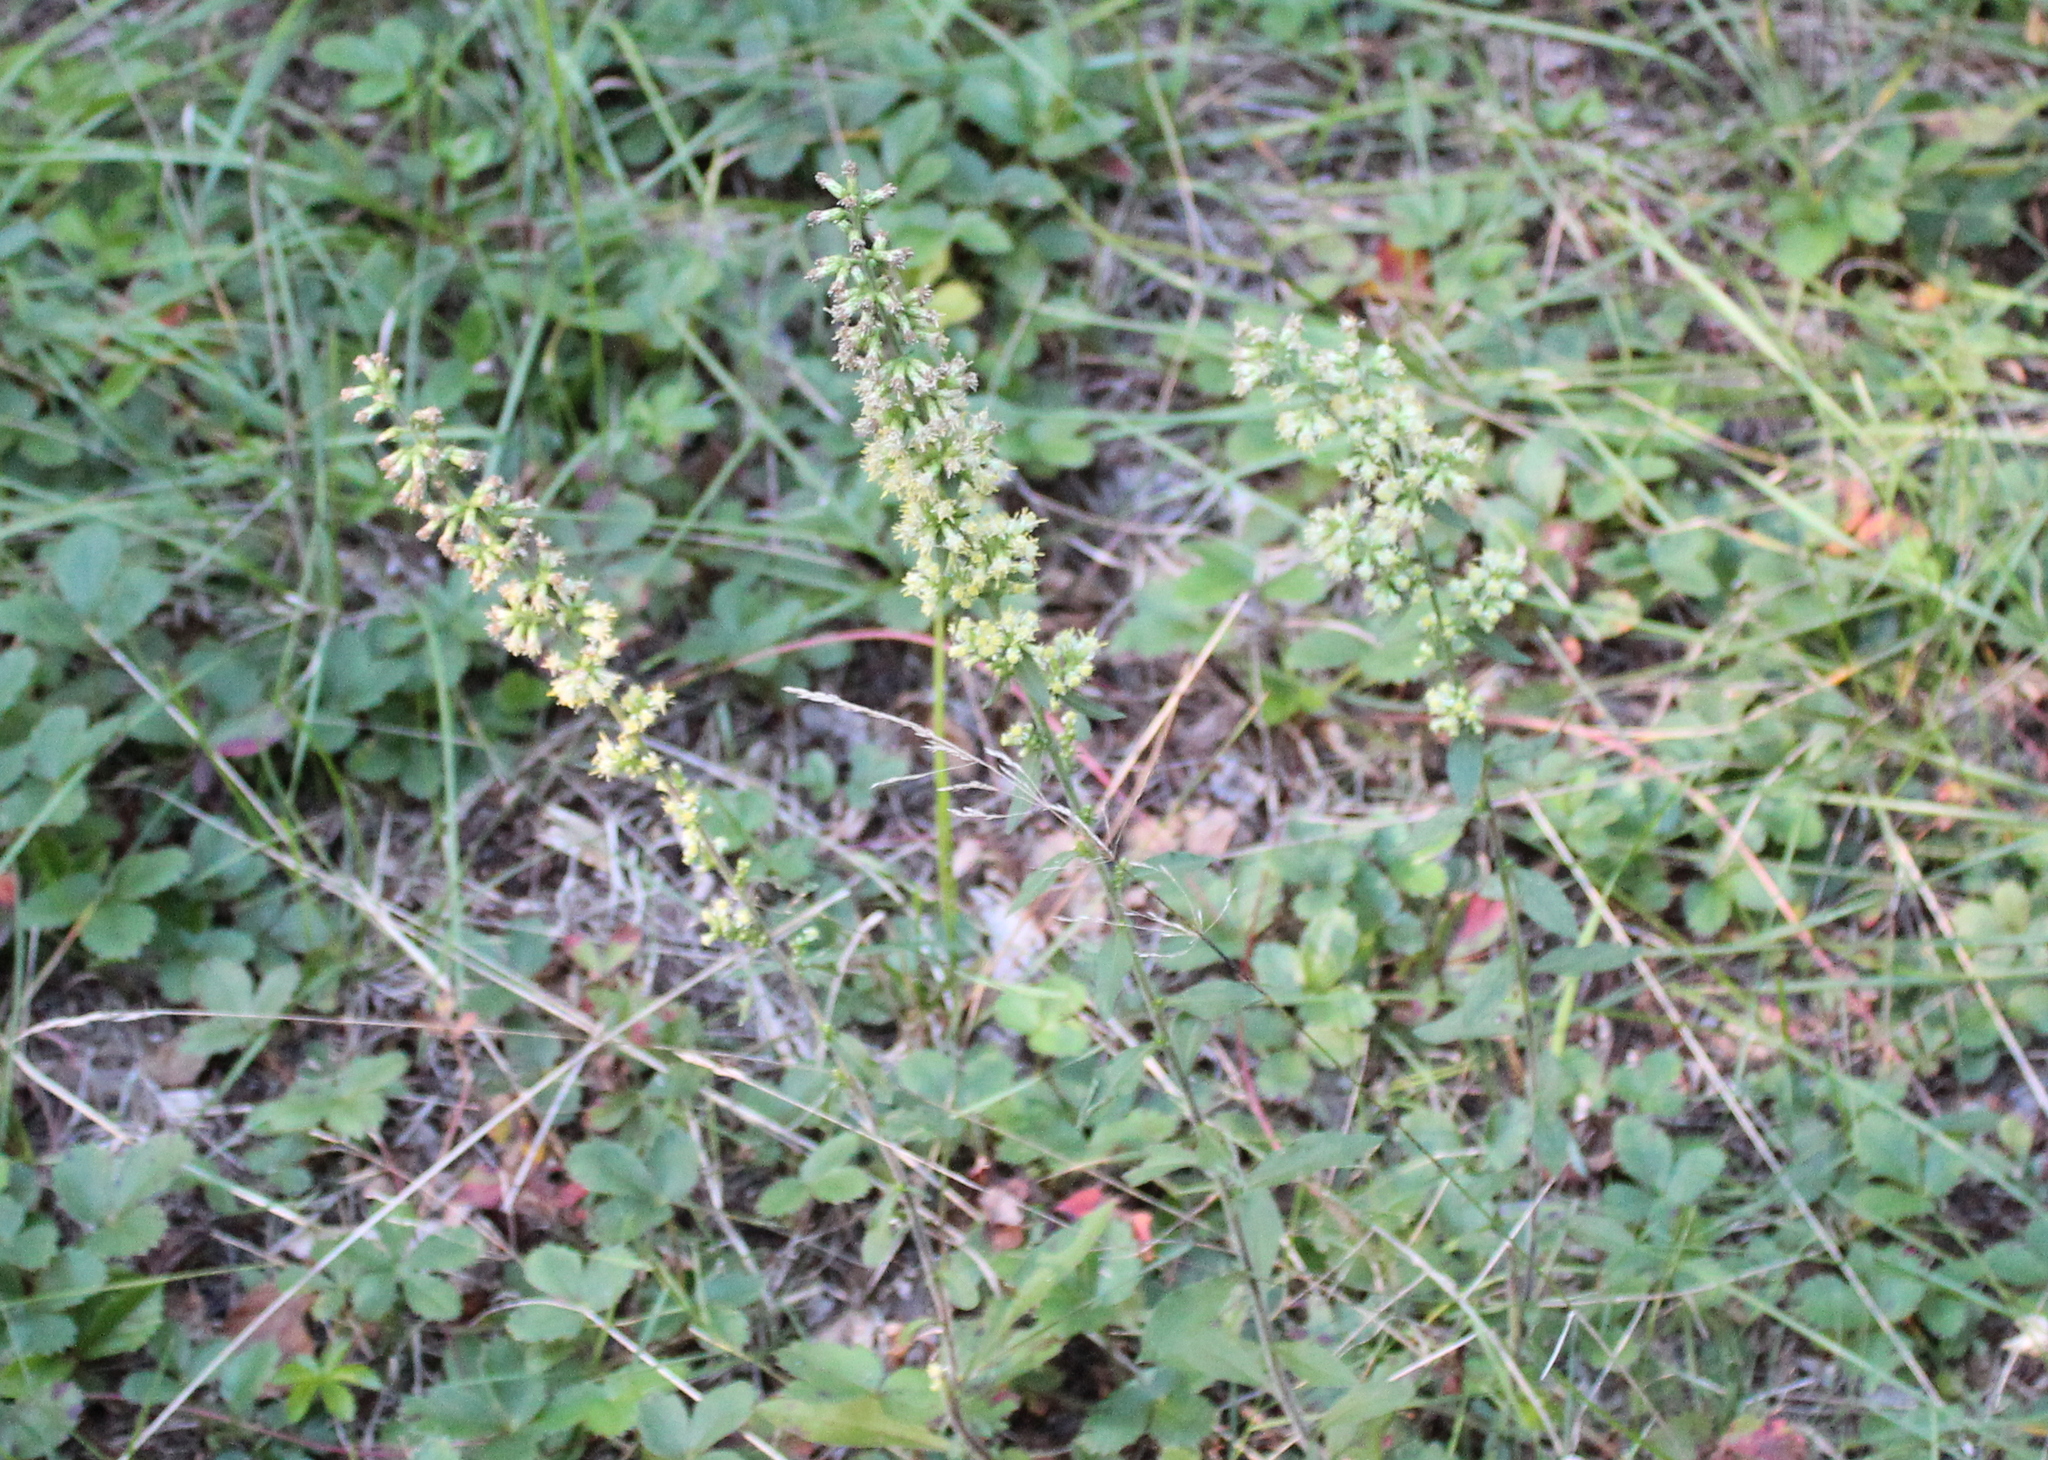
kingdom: Plantae
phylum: Tracheophyta
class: Magnoliopsida
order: Asterales
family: Asteraceae
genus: Solidago
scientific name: Solidago bicolor
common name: Silverrod
